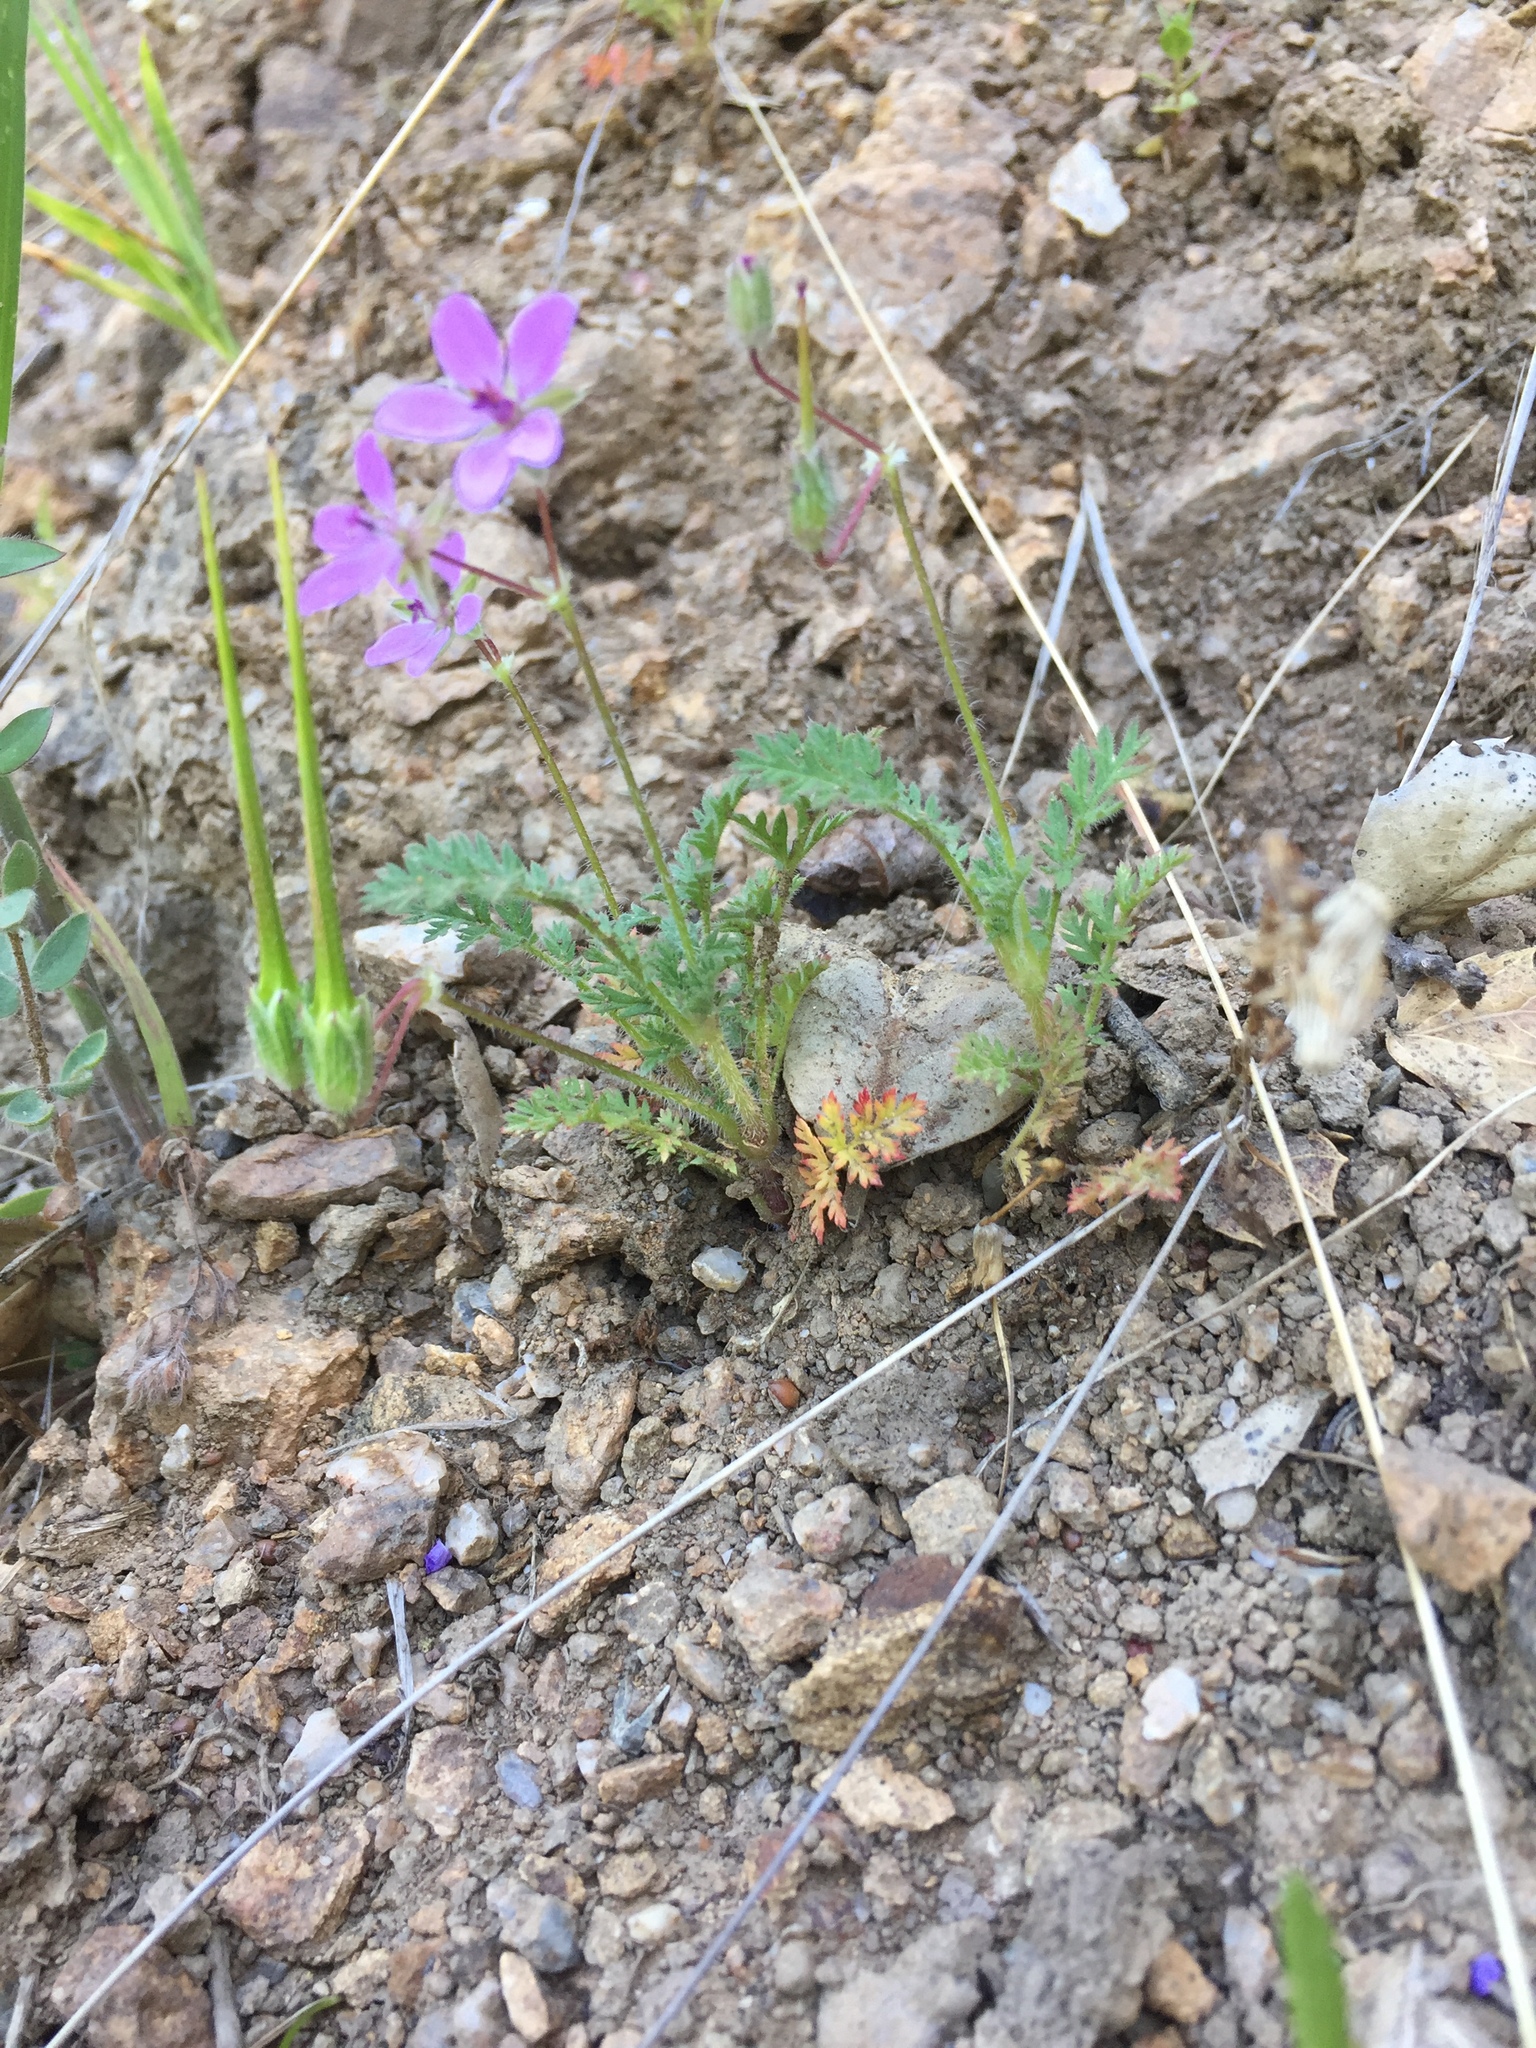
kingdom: Plantae
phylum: Tracheophyta
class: Magnoliopsida
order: Geraniales
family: Geraniaceae
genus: Erodium
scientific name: Erodium cicutarium
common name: Common stork's-bill
